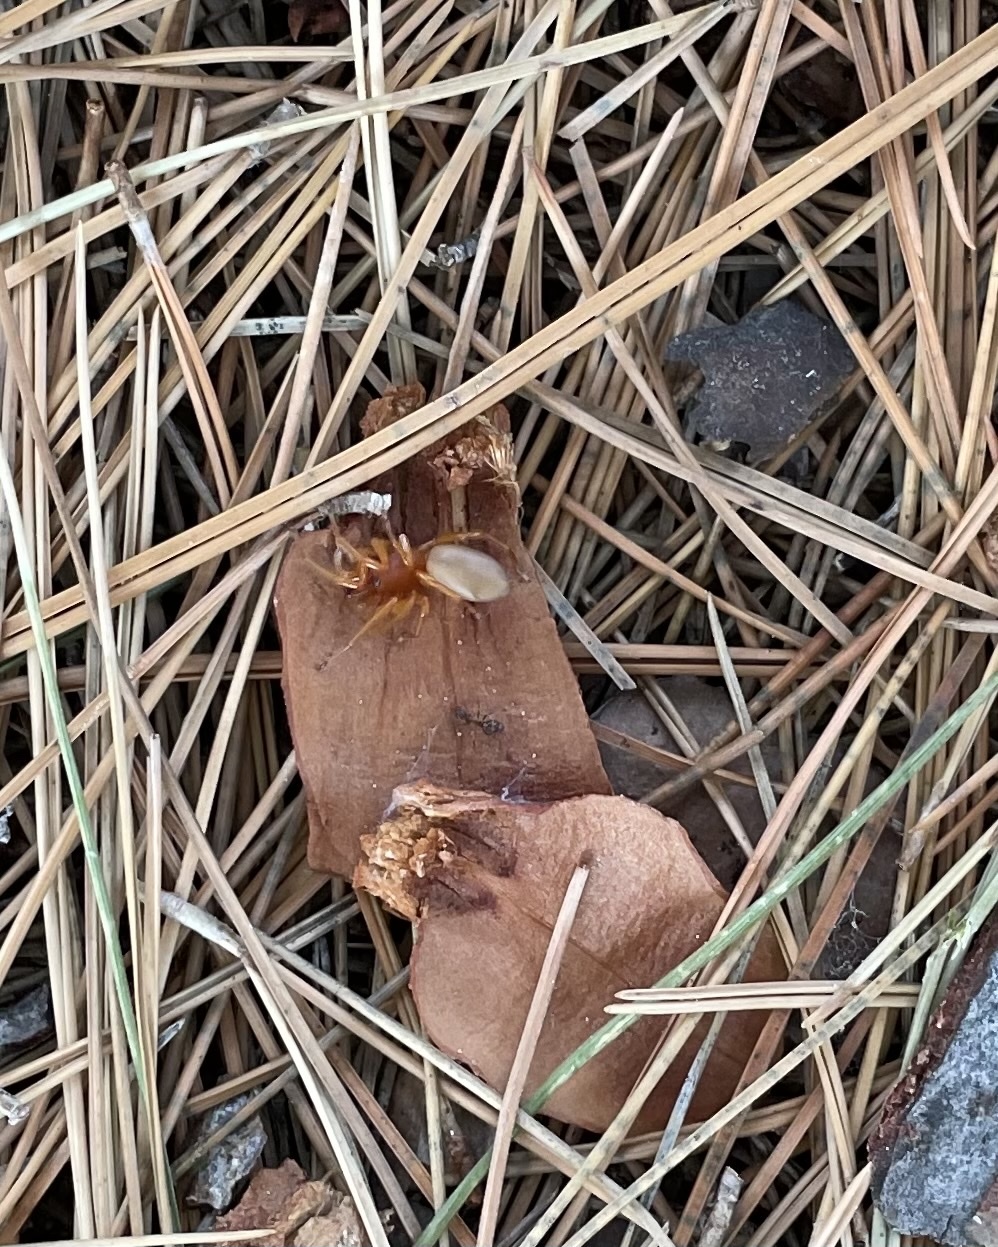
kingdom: Animalia
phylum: Arthropoda
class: Arachnida
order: Araneae
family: Dysderidae
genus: Dysdera
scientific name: Dysdera crocata
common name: Woodlouse spider
